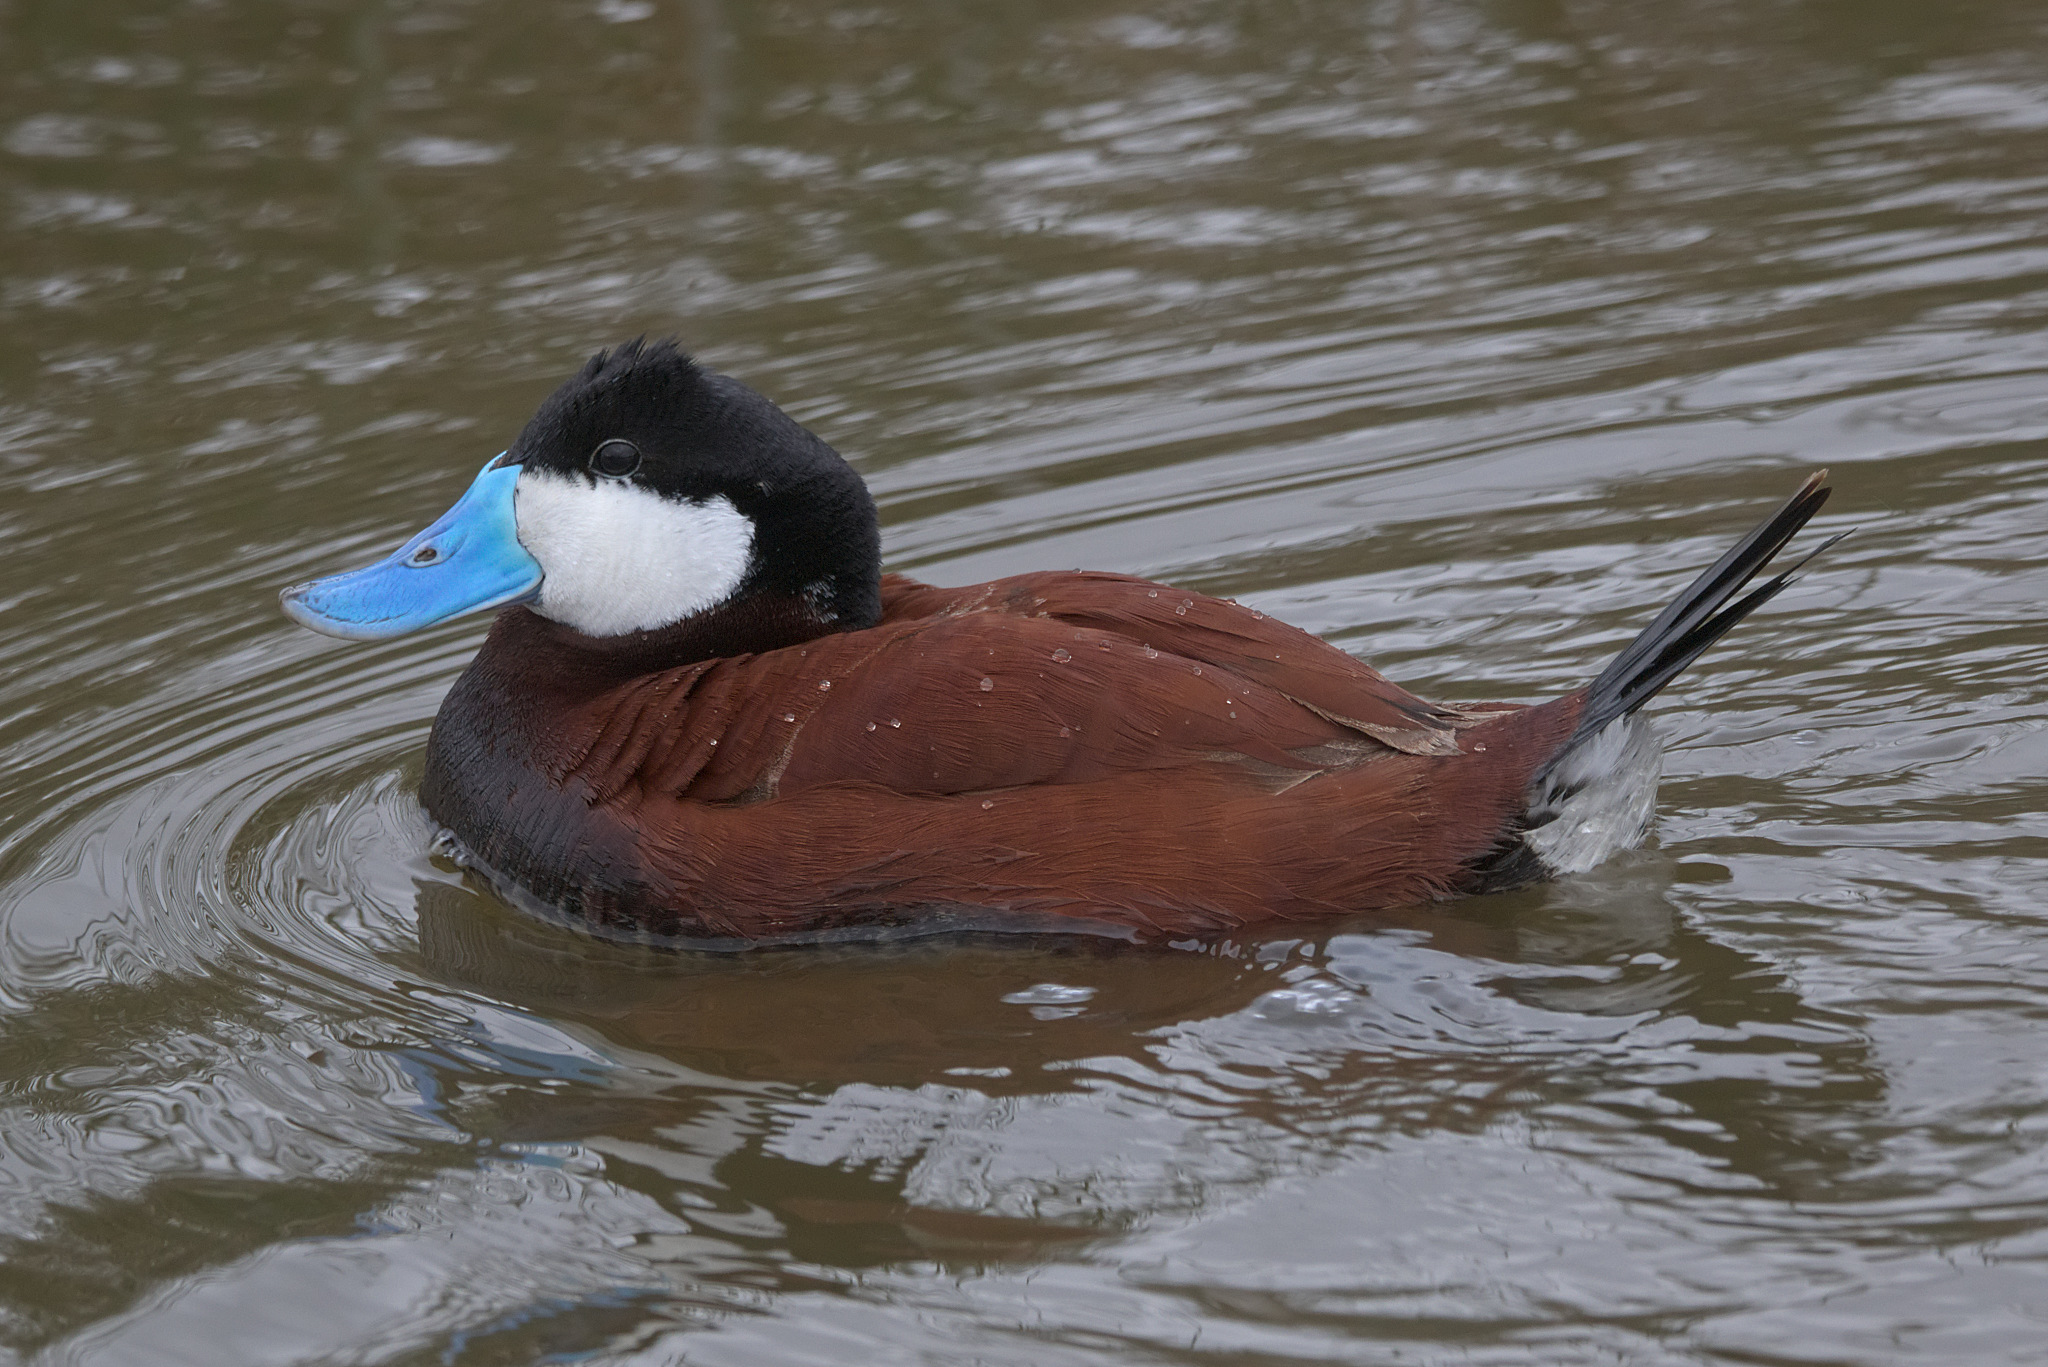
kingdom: Animalia
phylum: Chordata
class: Aves
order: Anseriformes
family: Anatidae
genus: Oxyura
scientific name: Oxyura jamaicensis
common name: Ruddy duck
